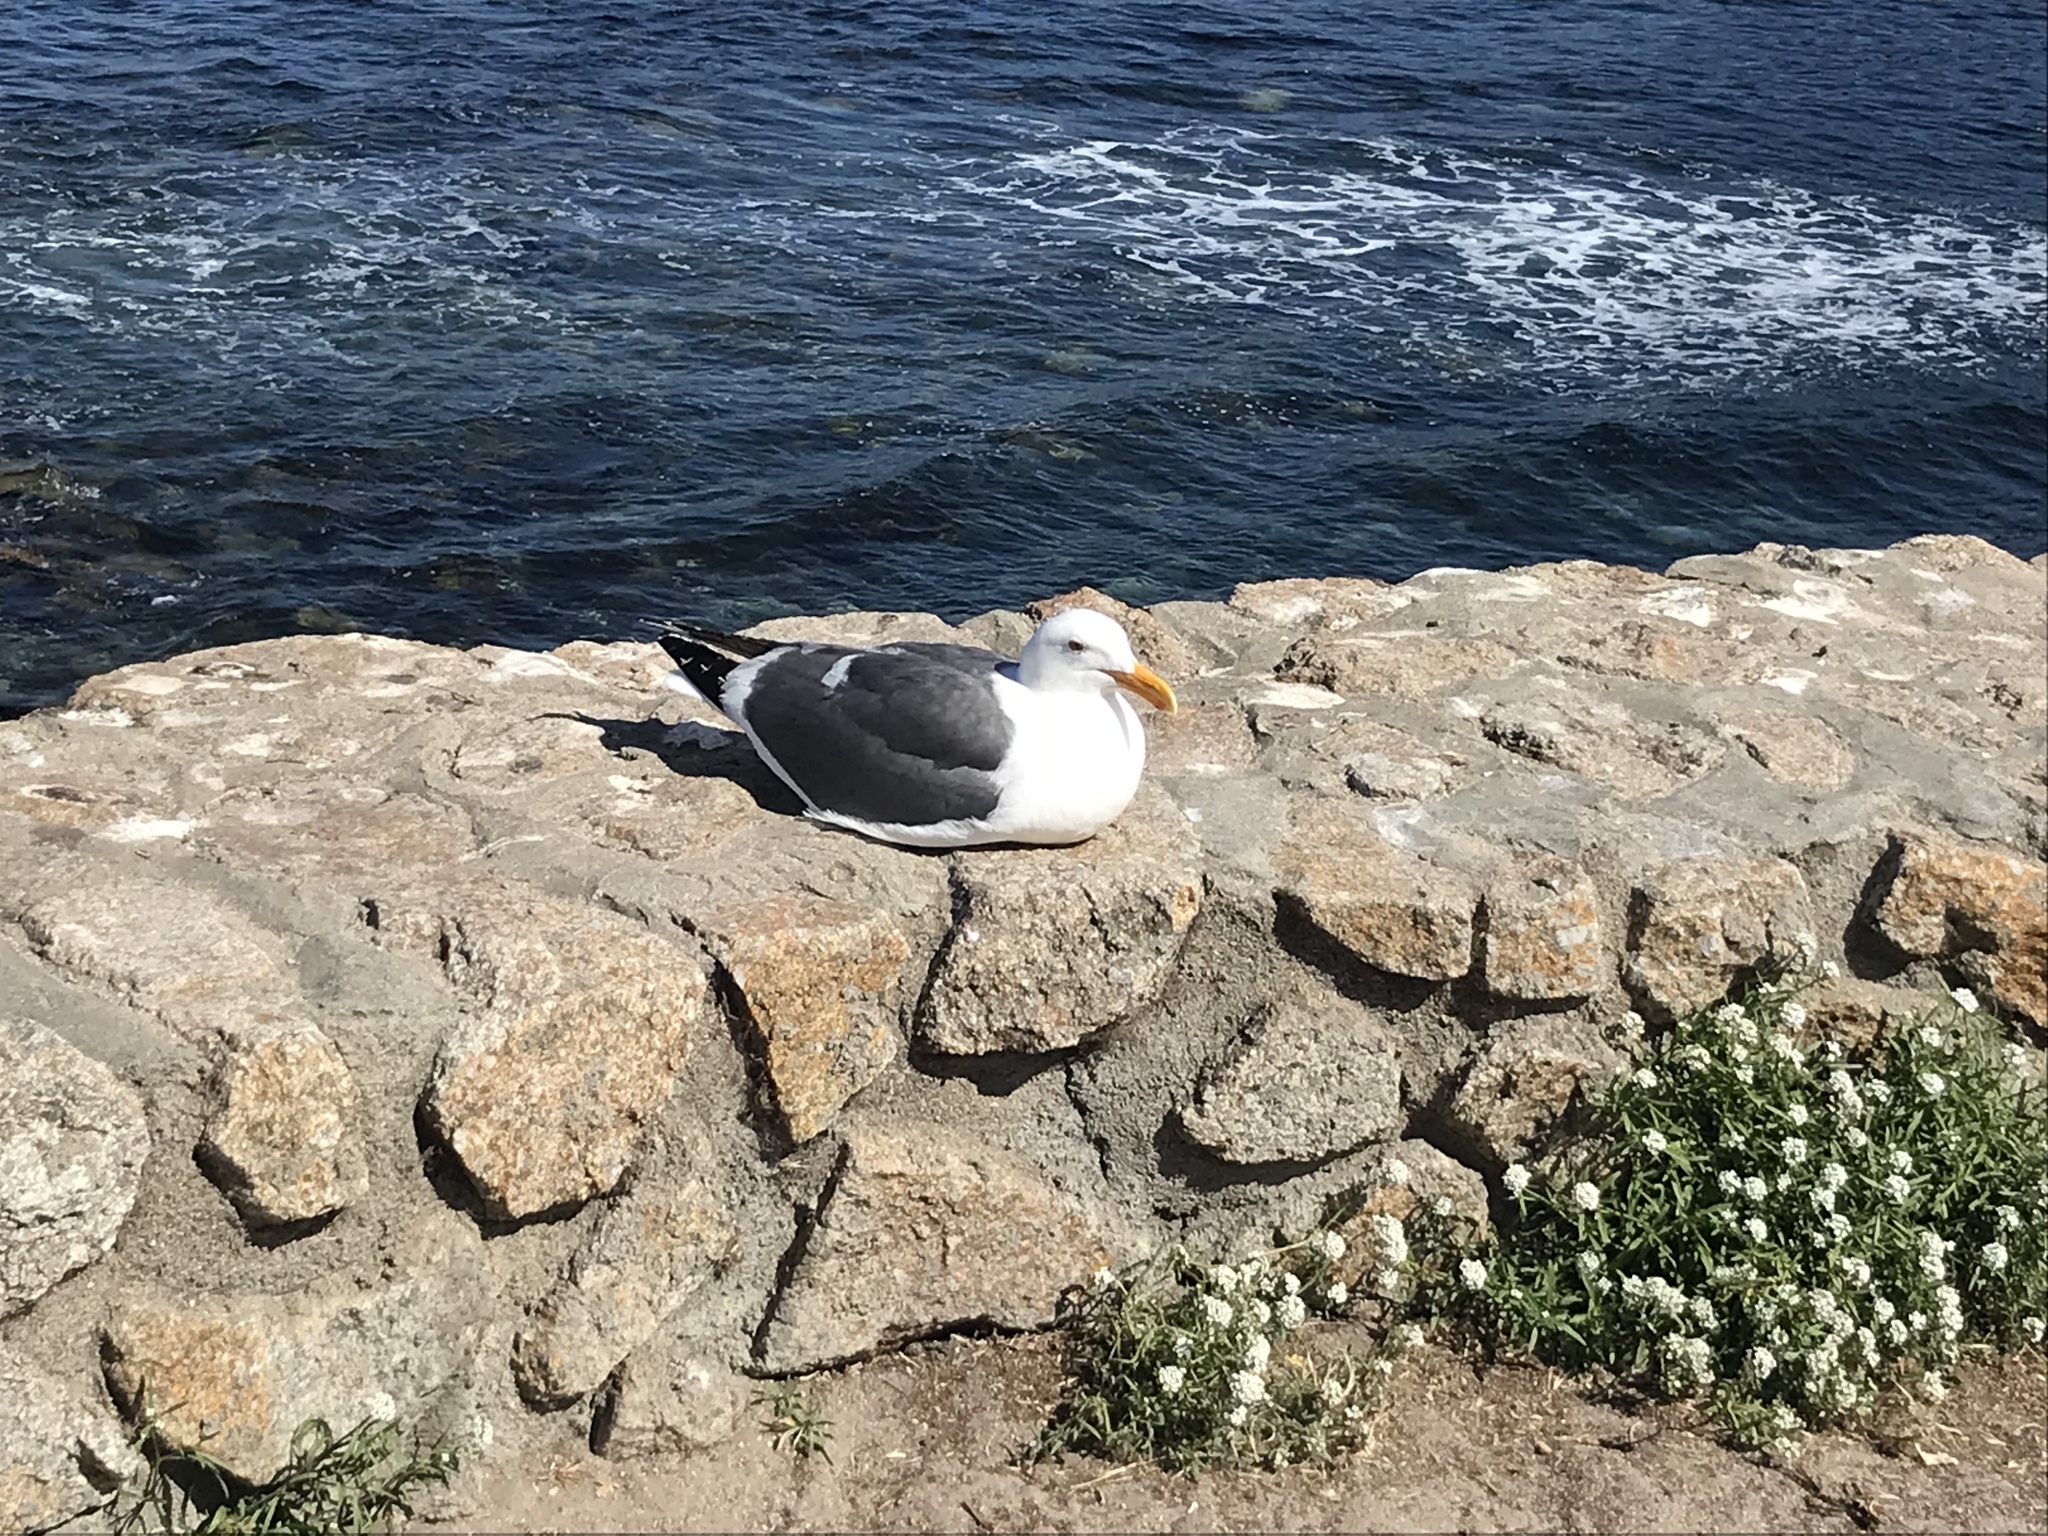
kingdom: Animalia
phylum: Chordata
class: Aves
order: Charadriiformes
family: Laridae
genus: Larus
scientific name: Larus occidentalis
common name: Western gull
